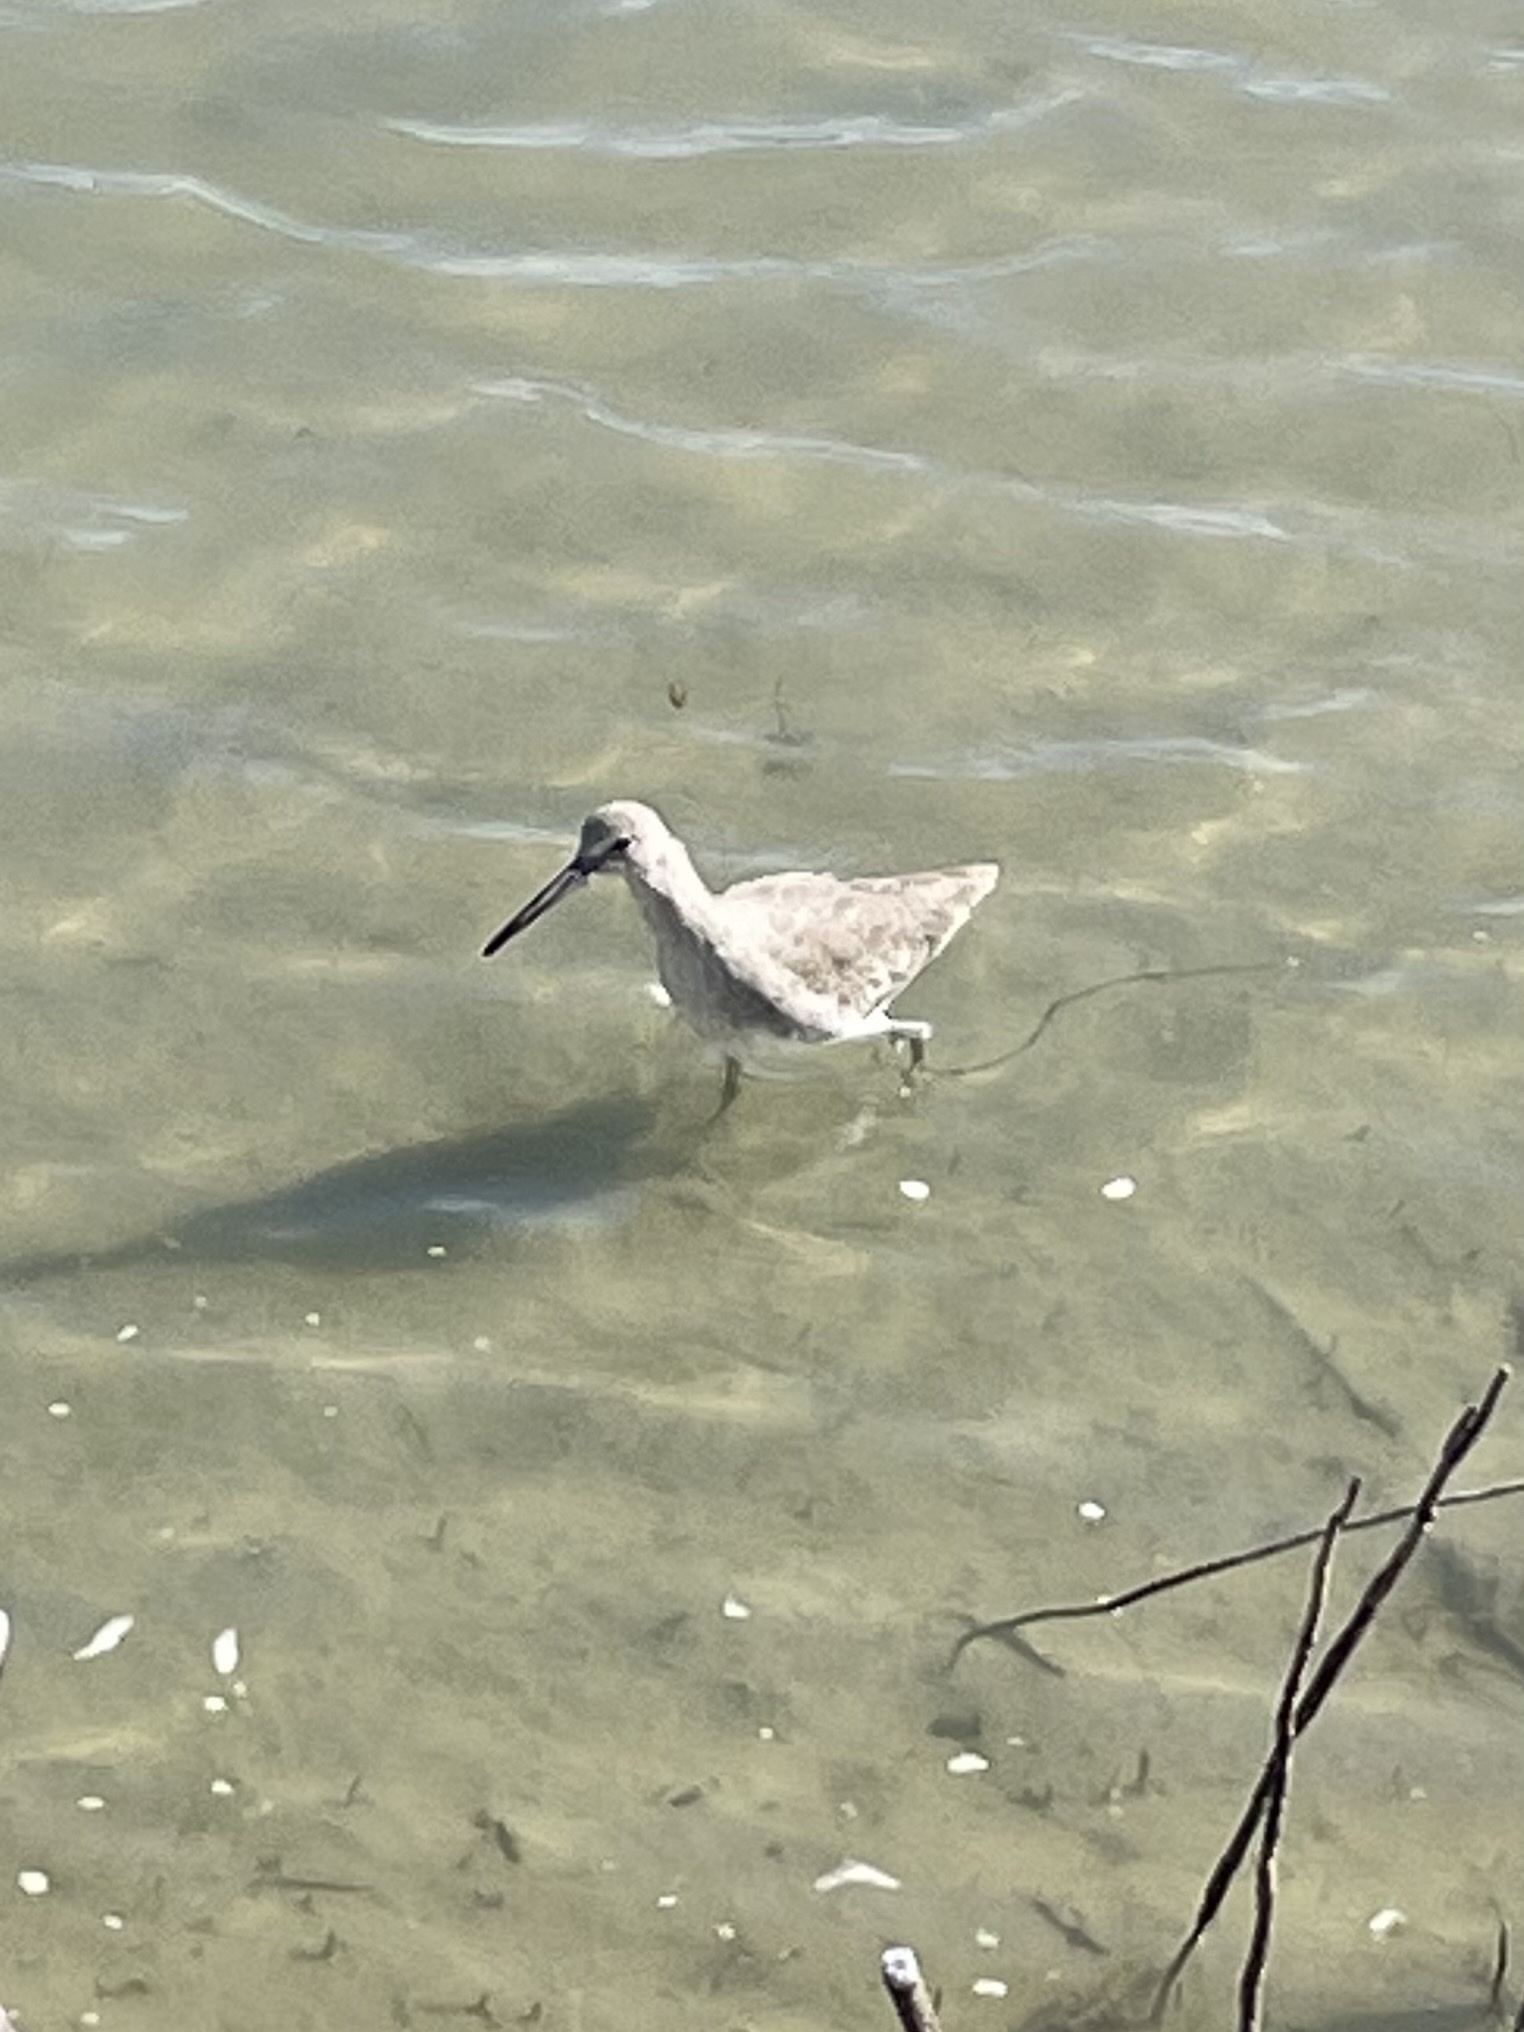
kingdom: Animalia
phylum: Chordata
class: Aves
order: Charadriiformes
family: Scolopacidae
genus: Tringa
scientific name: Tringa semipalmata
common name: Willet
